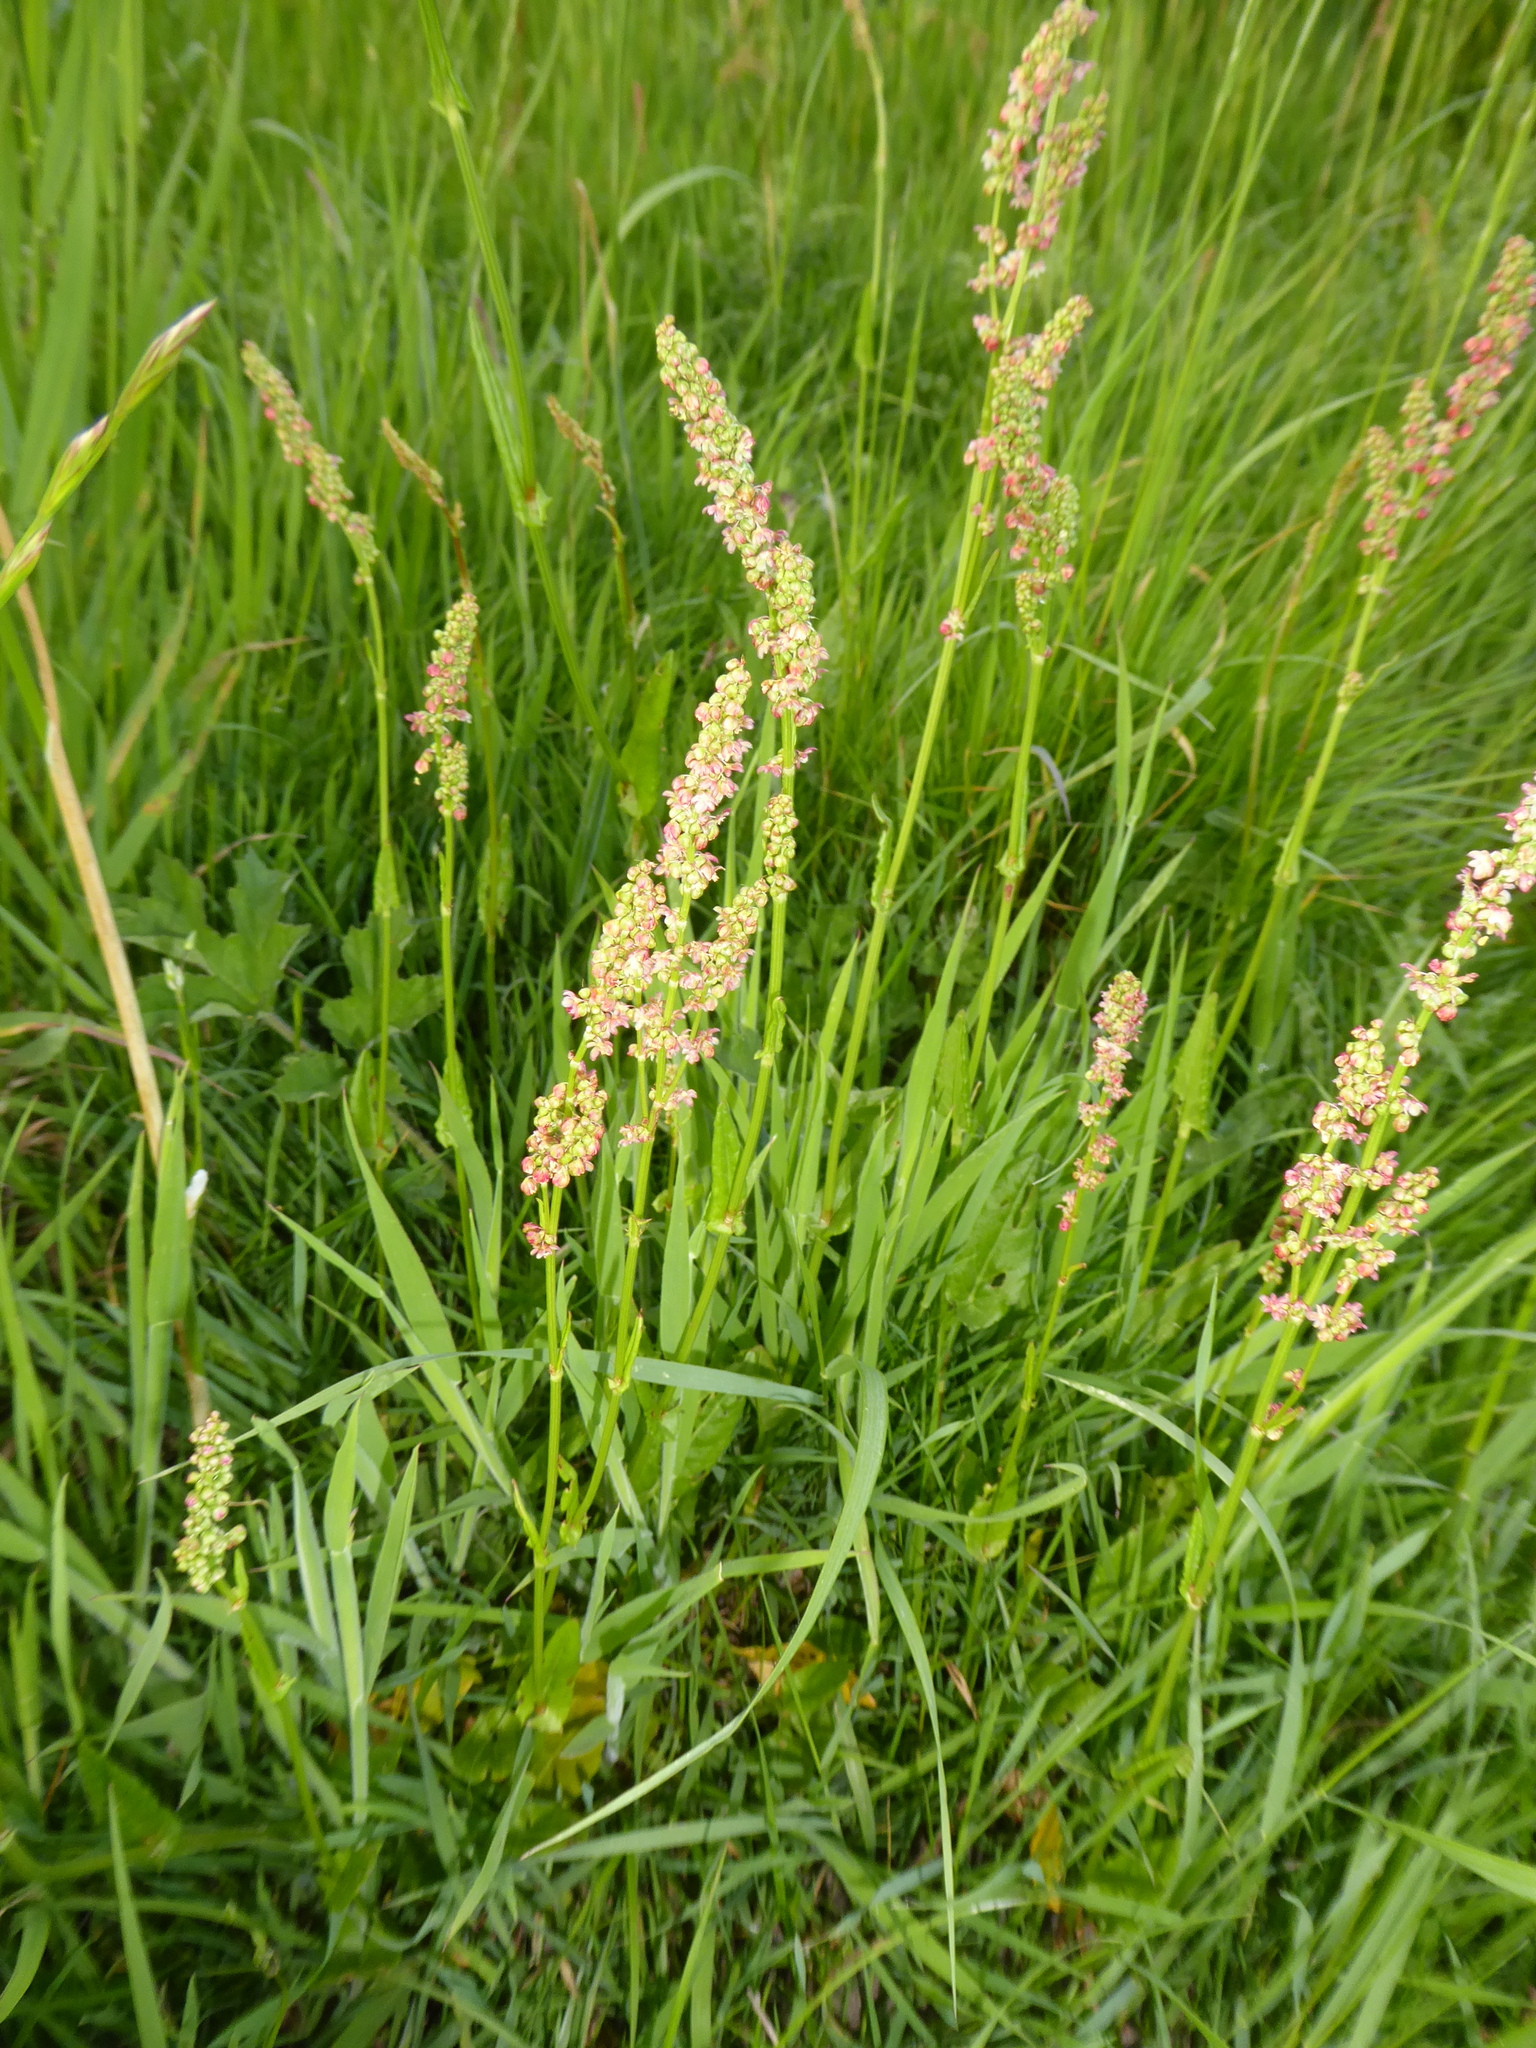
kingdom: Plantae
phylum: Tracheophyta
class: Magnoliopsida
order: Caryophyllales
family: Polygonaceae
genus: Rumex
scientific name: Rumex acetosa
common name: Garden sorrel
